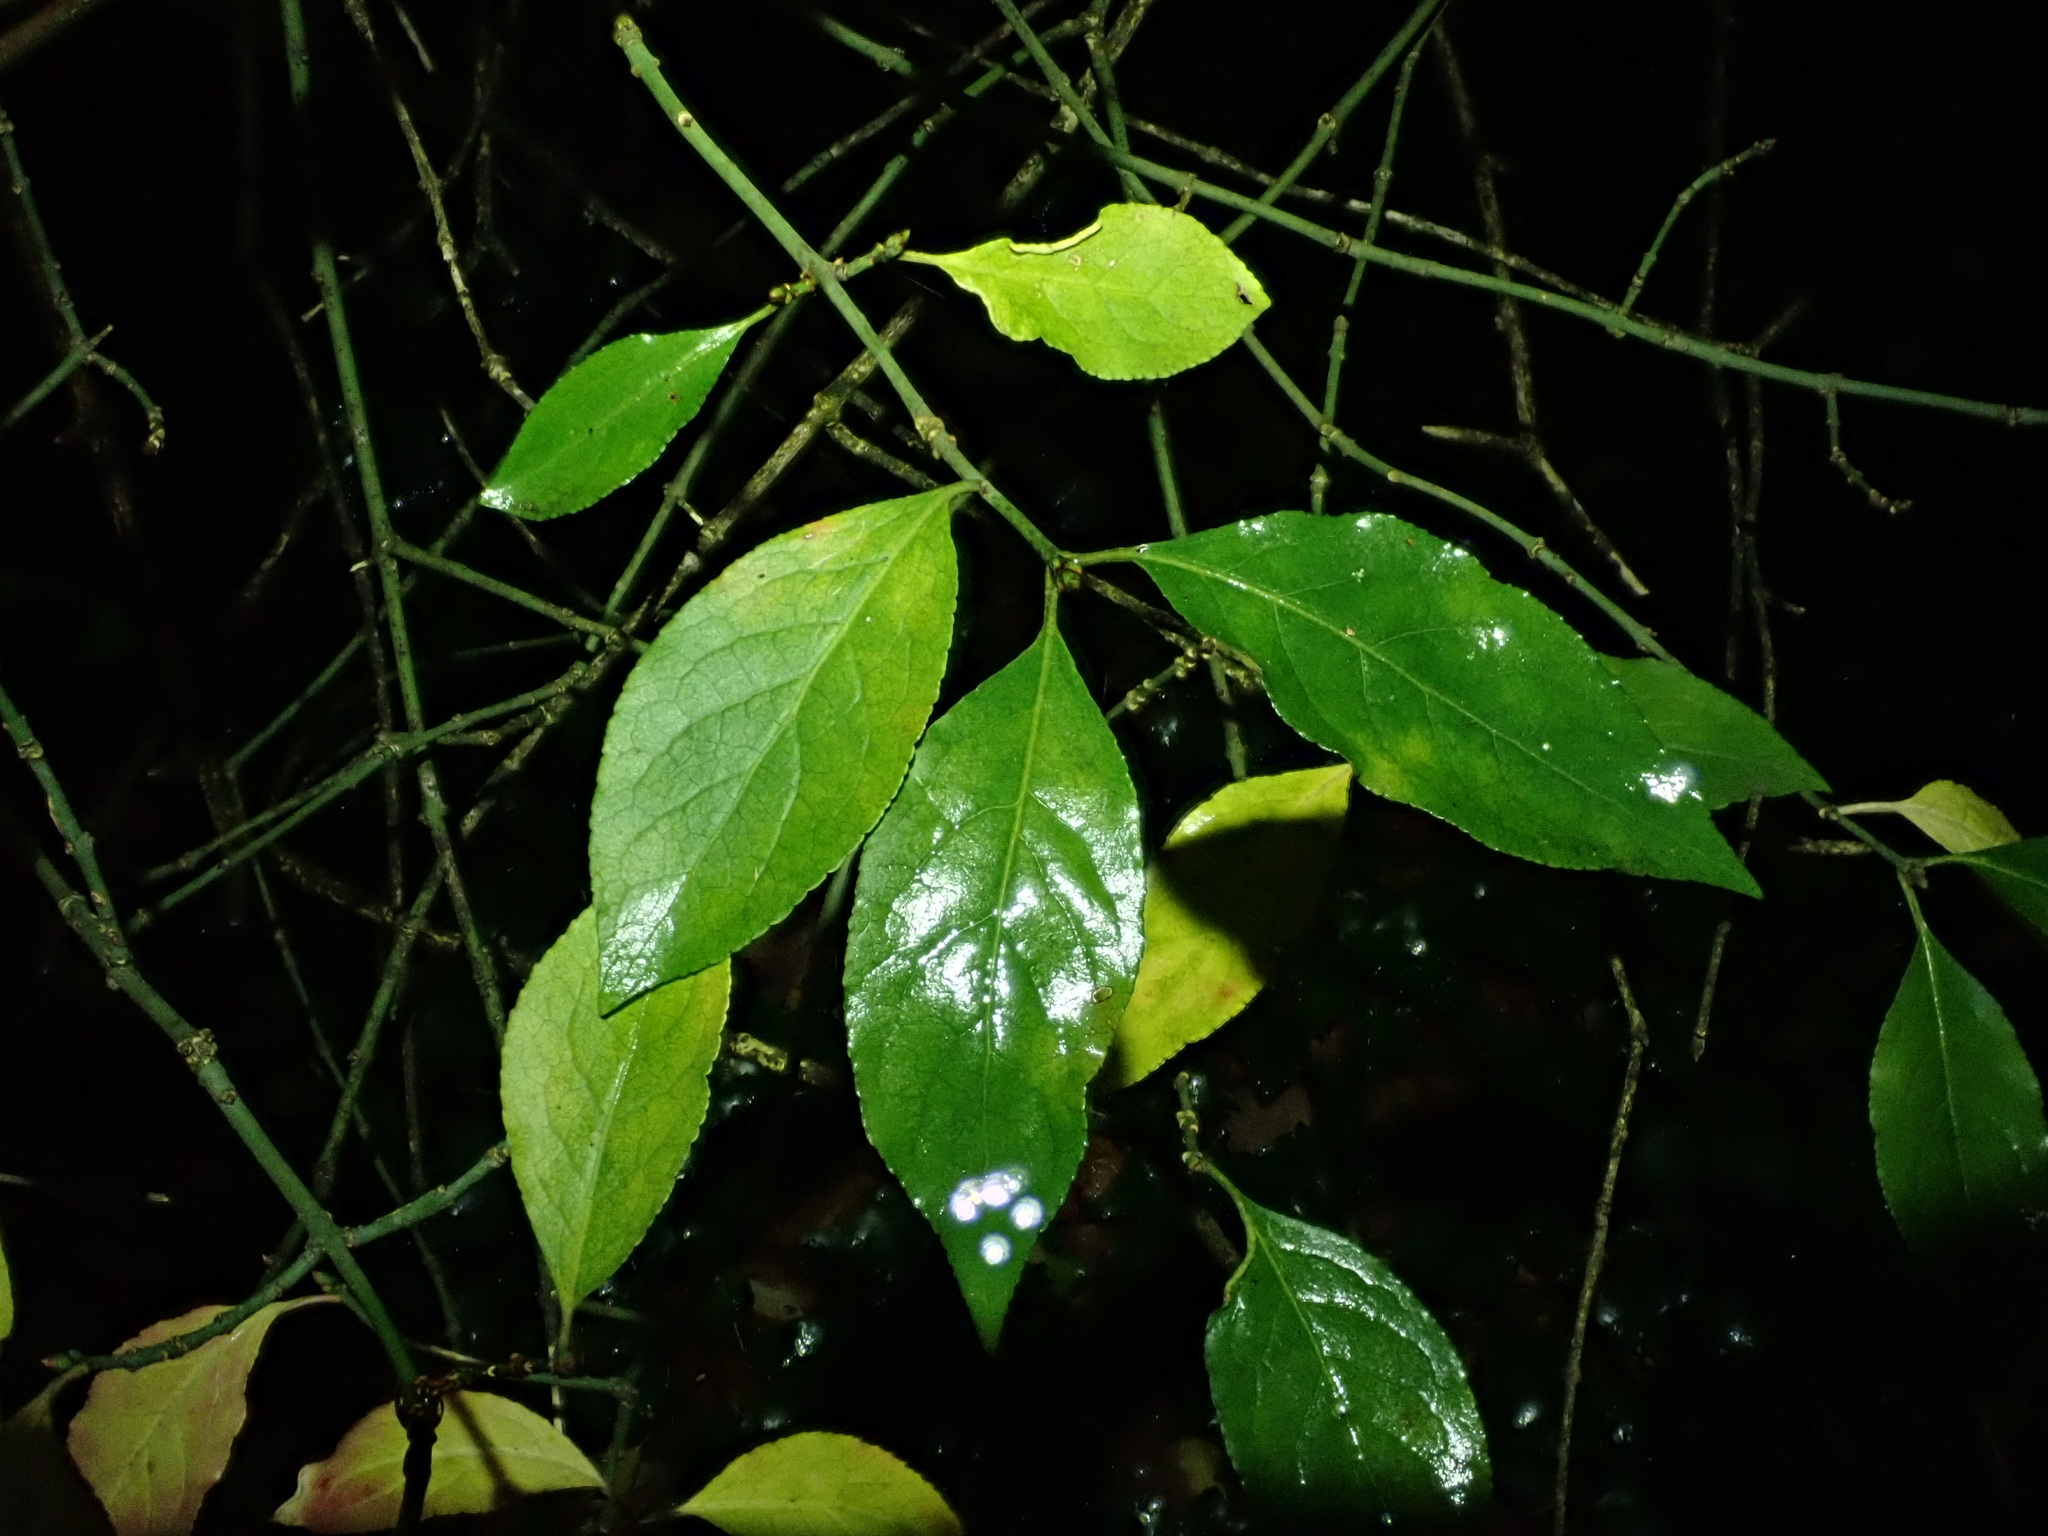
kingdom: Plantae
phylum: Tracheophyta
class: Magnoliopsida
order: Celastrales
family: Celastraceae
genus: Euonymus
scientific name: Euonymus europaeus
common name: Spindle
